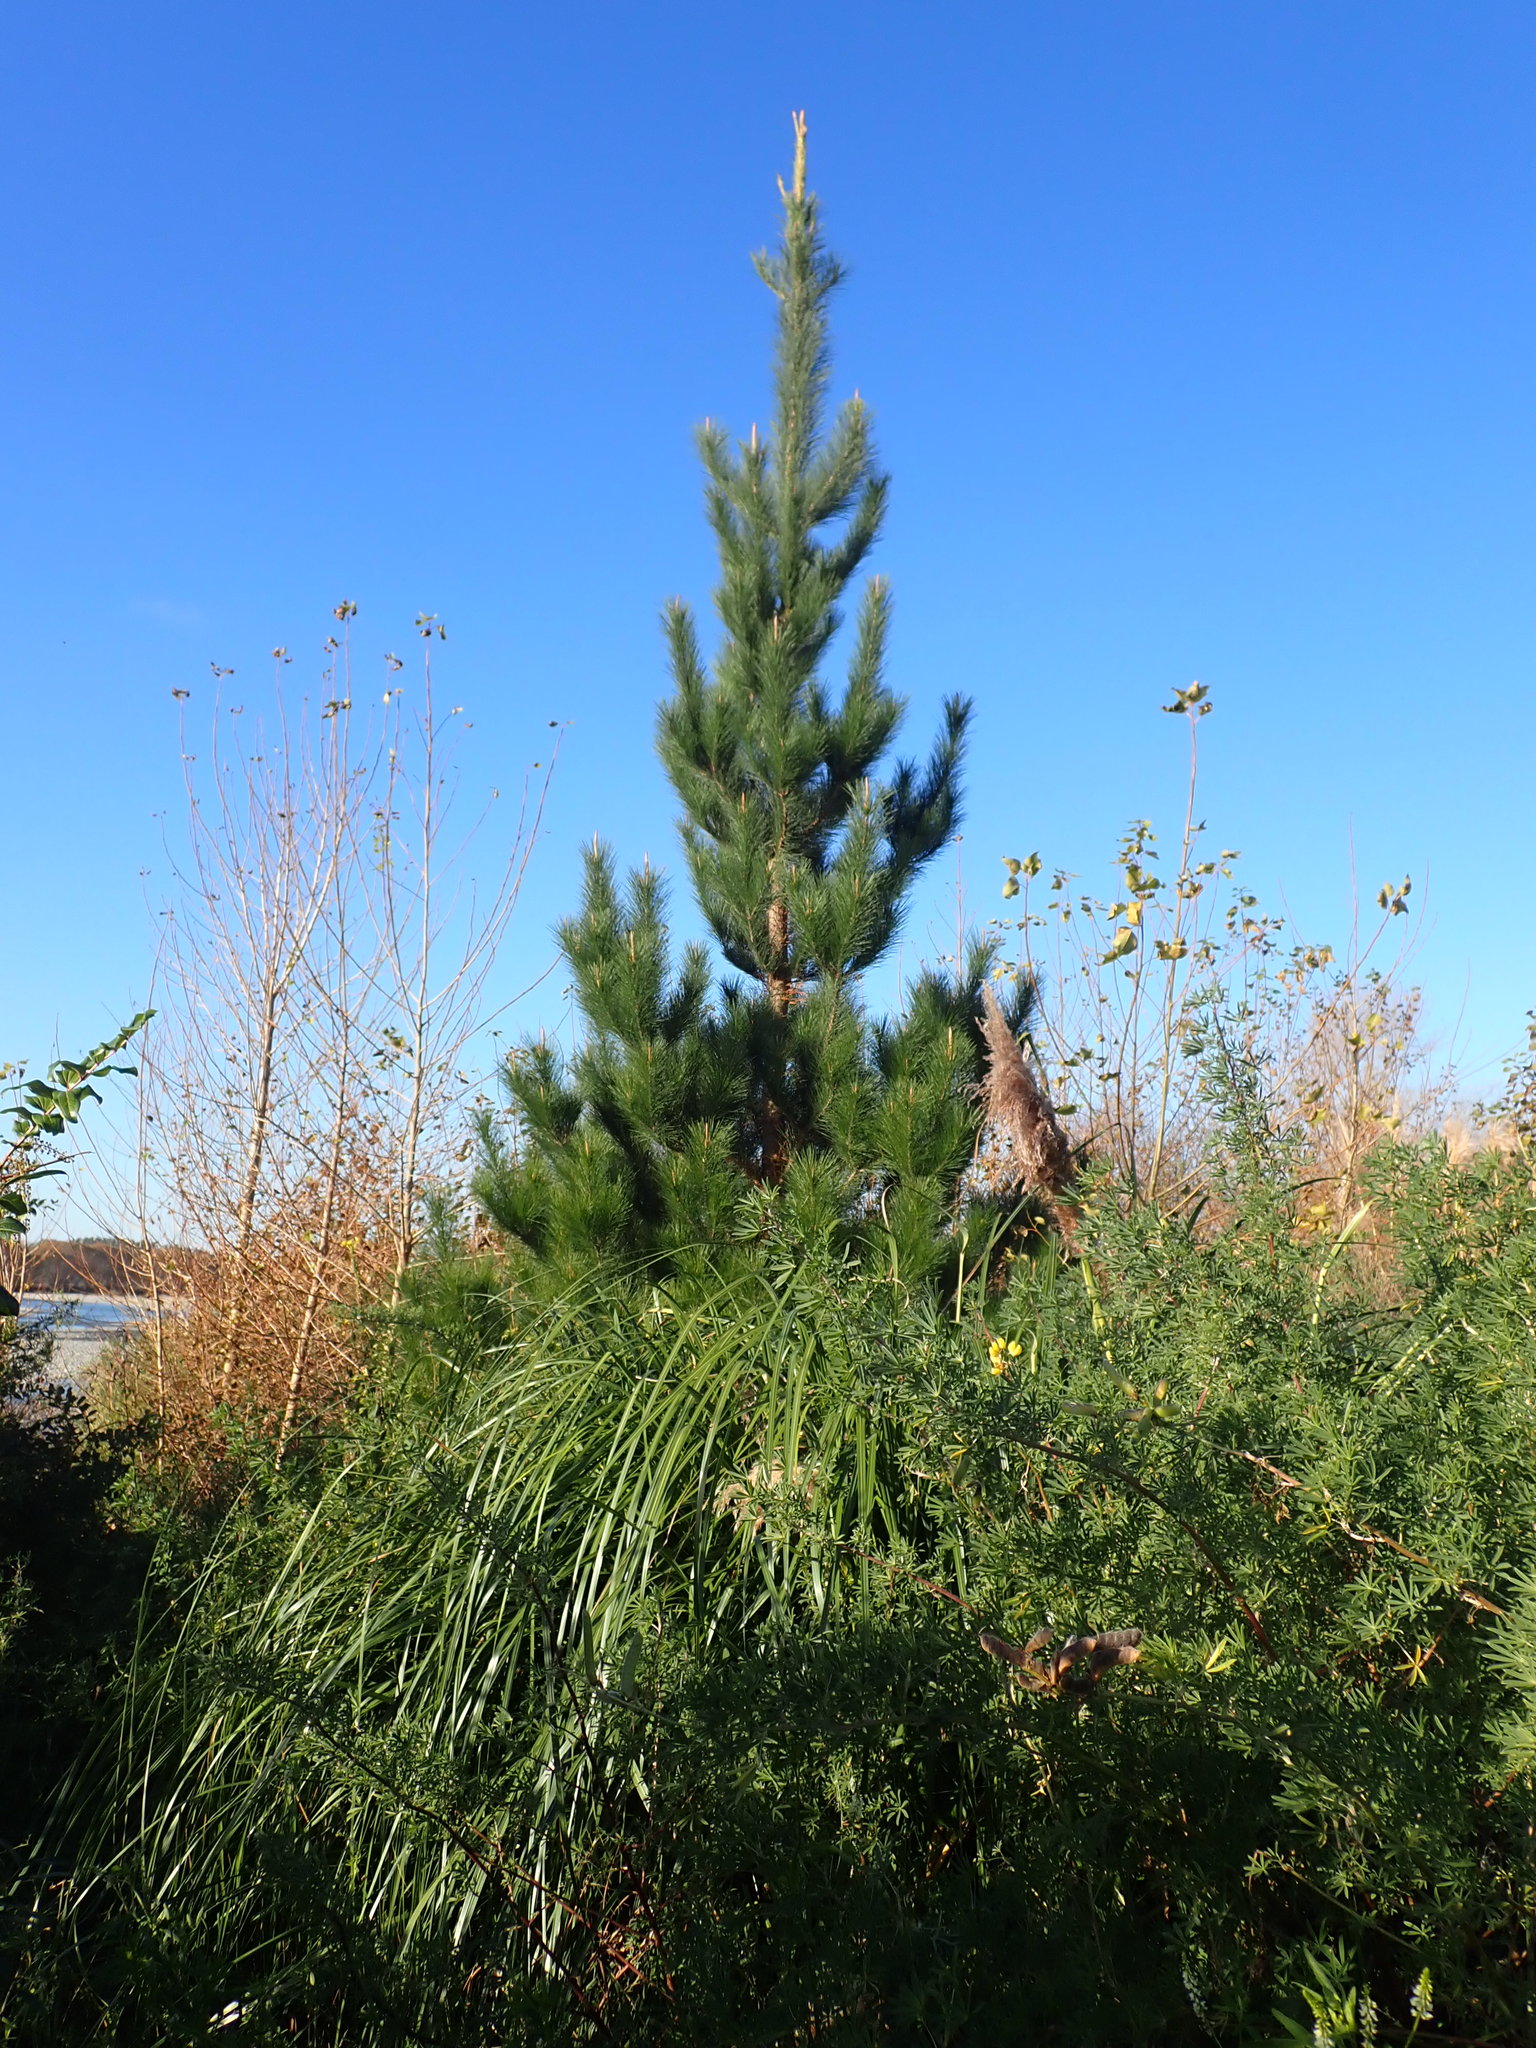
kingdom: Plantae
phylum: Tracheophyta
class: Pinopsida
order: Pinales
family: Pinaceae
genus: Pinus
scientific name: Pinus radiata
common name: Monterey pine
